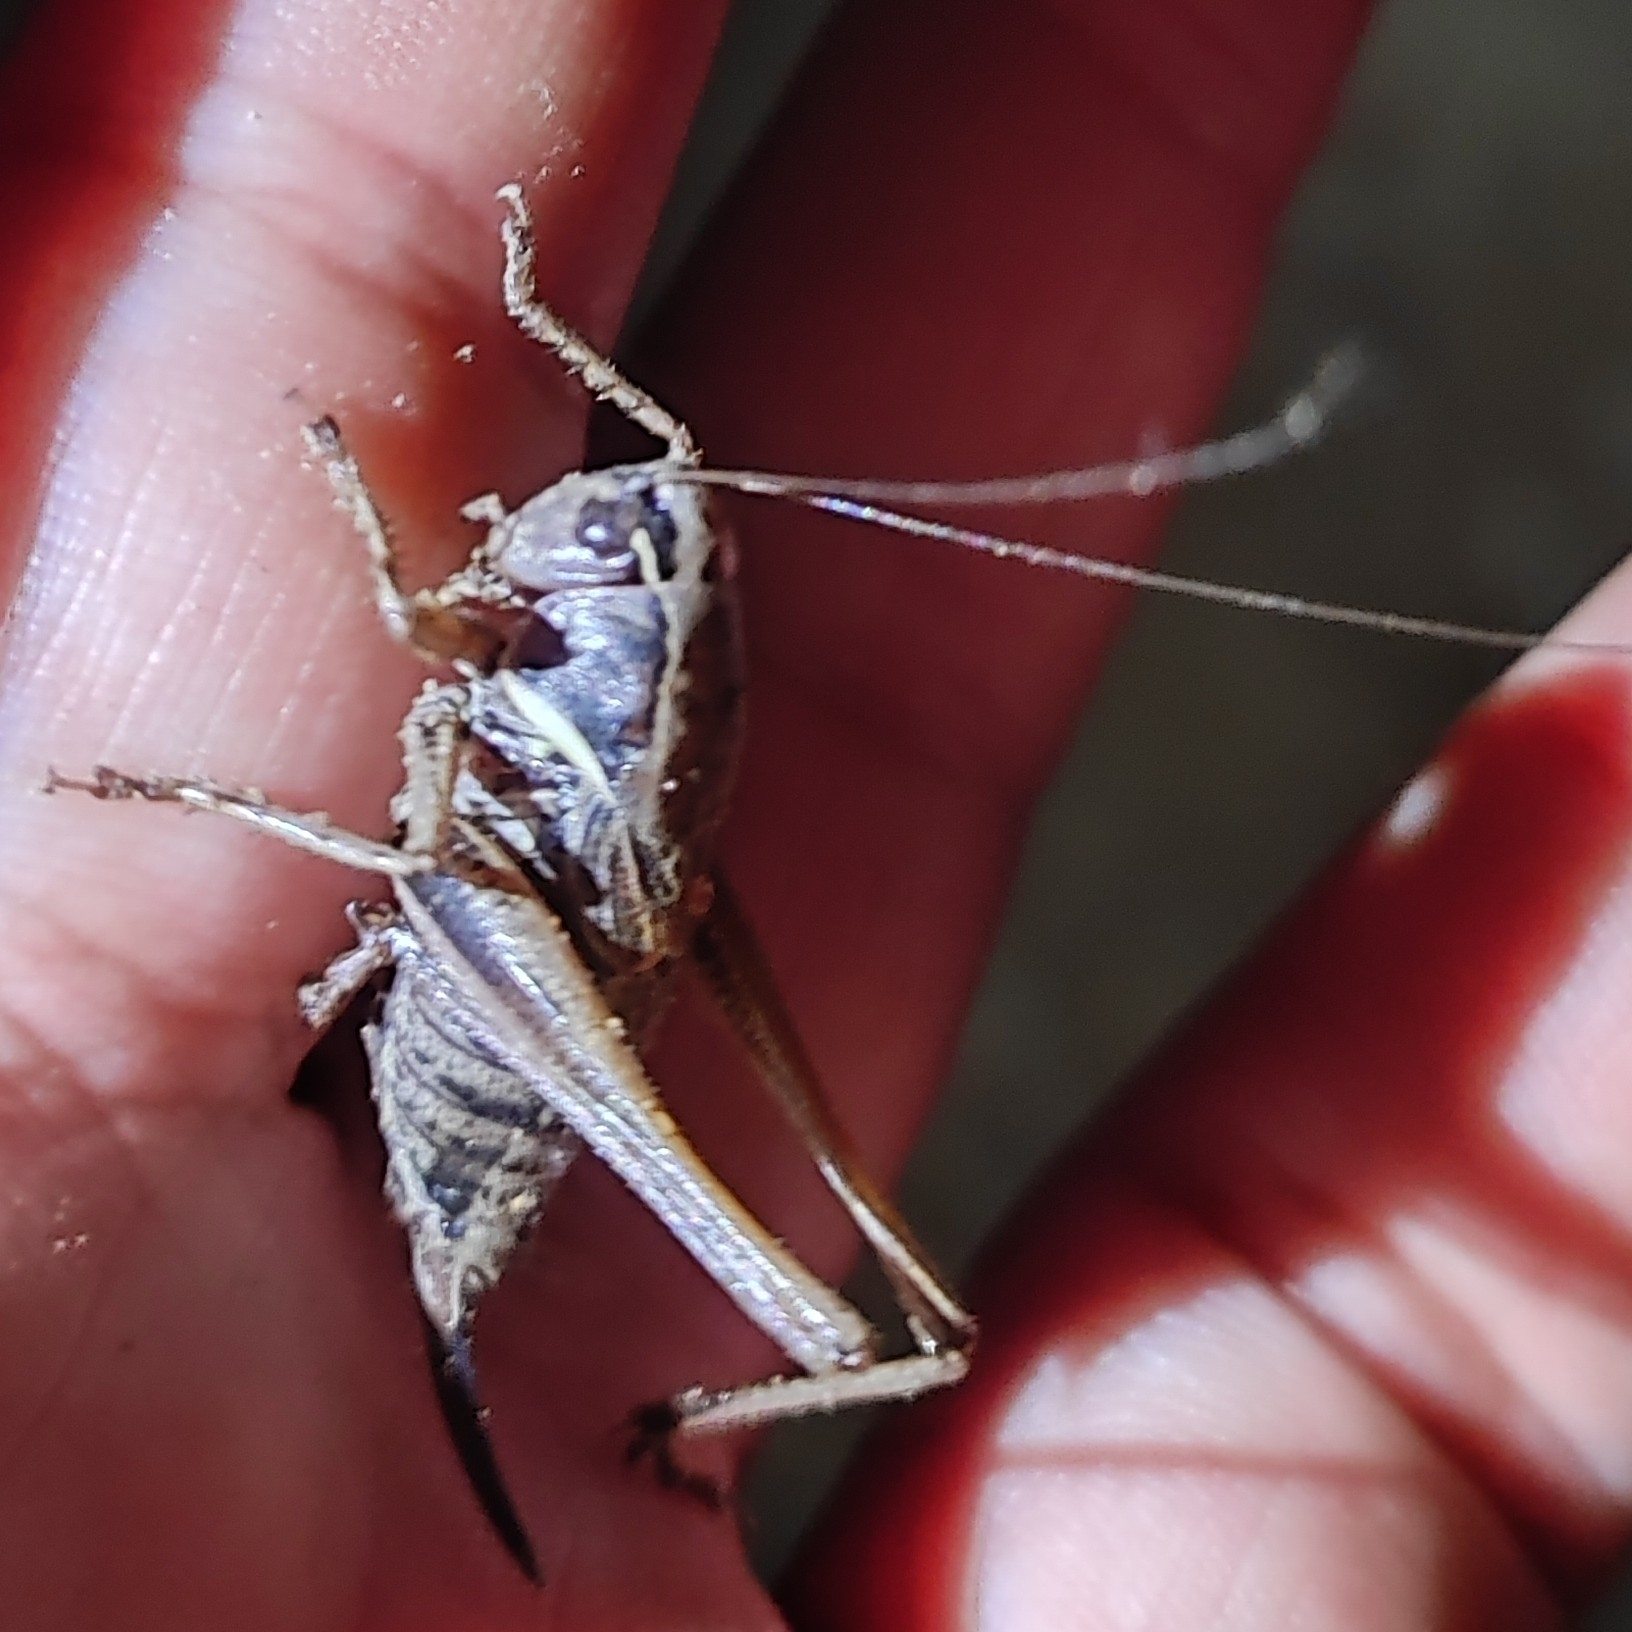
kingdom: Animalia
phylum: Arthropoda
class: Insecta
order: Orthoptera
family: Tettigoniidae
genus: Chizuella
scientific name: Chizuella bonneti
